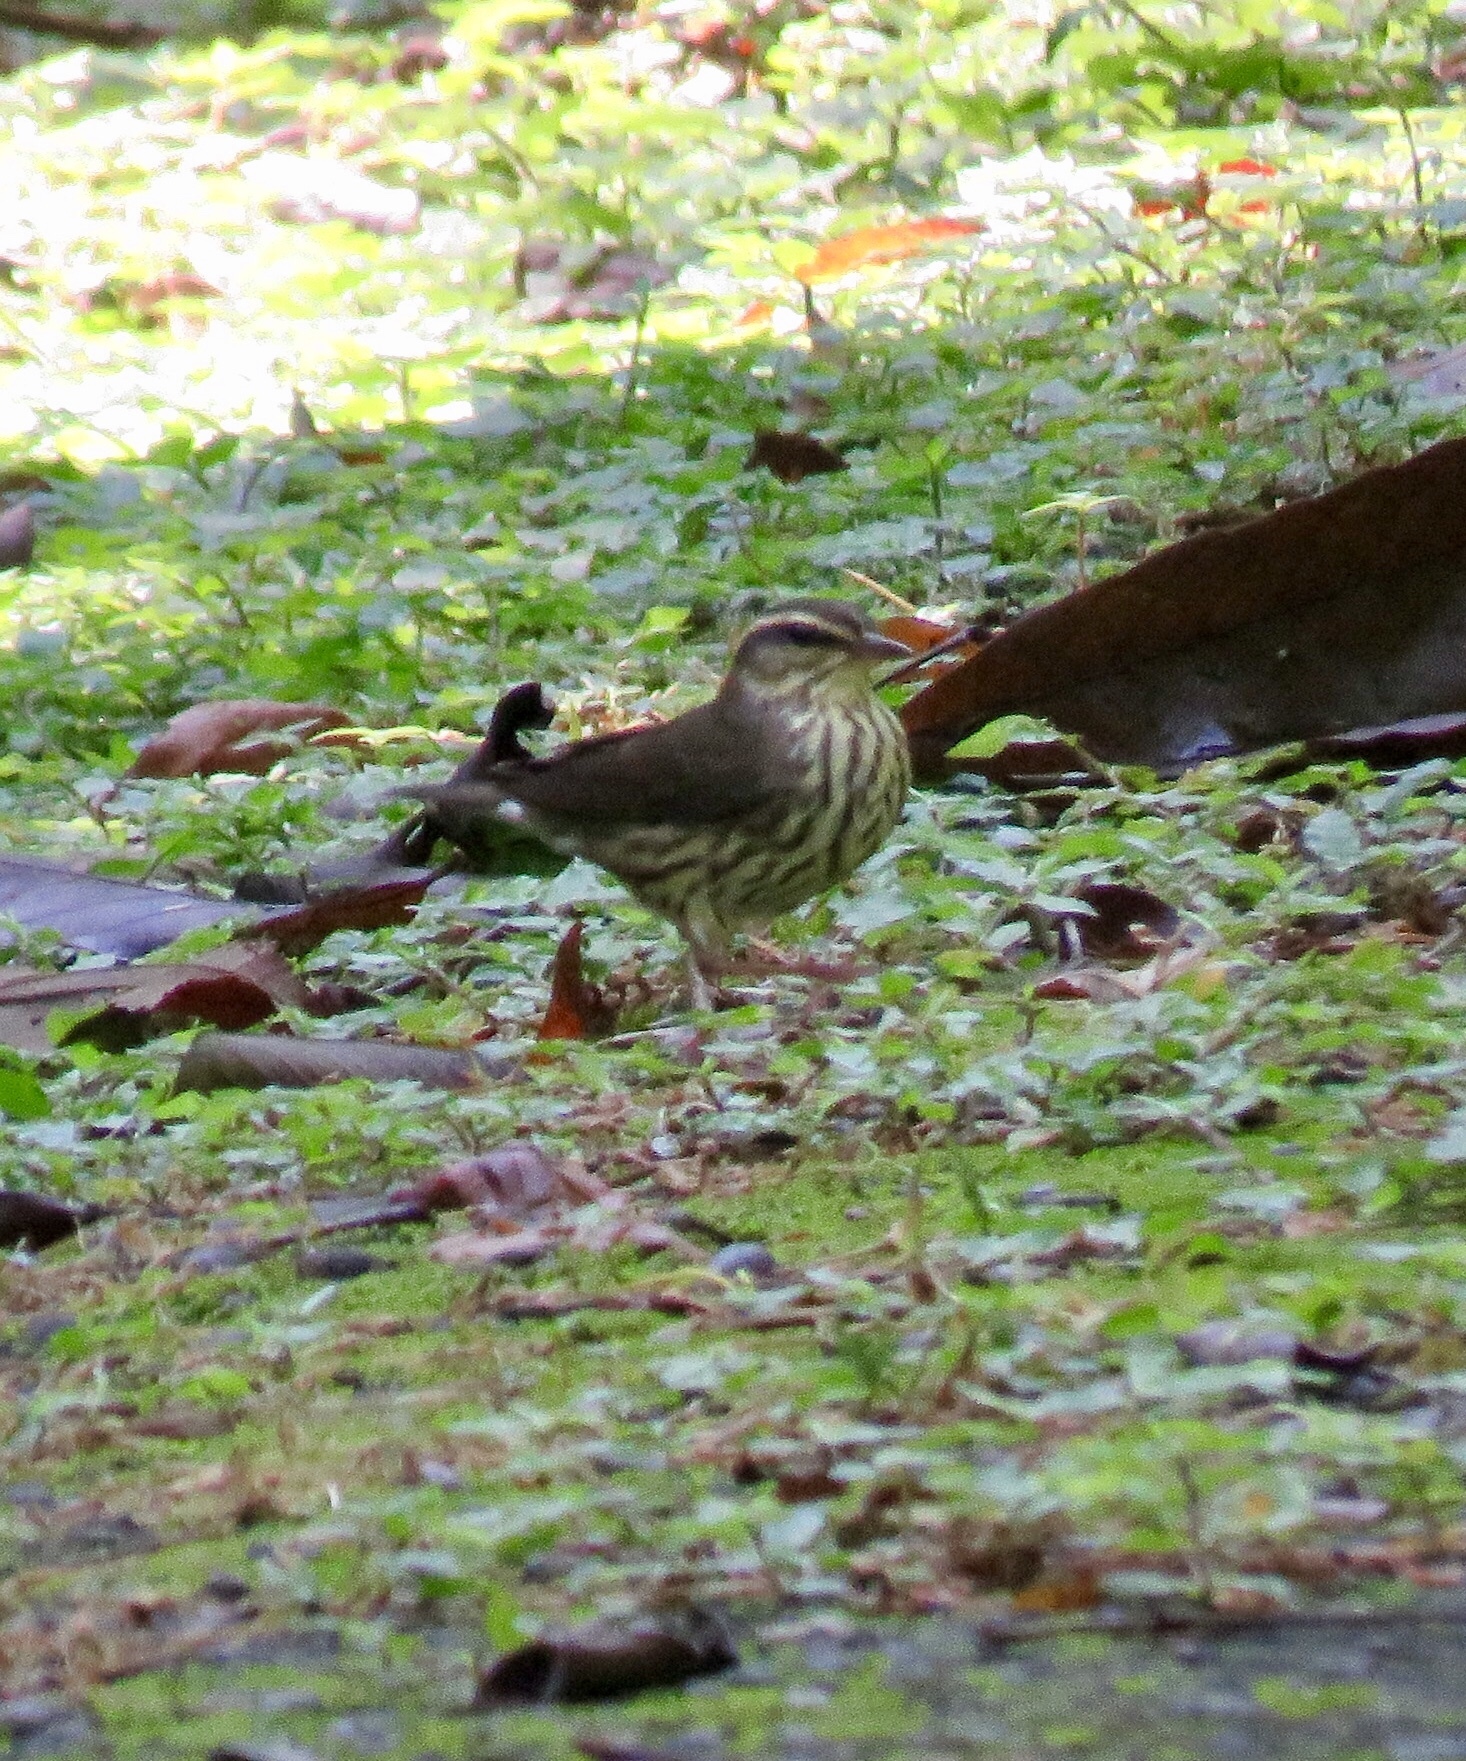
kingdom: Animalia
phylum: Chordata
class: Aves
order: Passeriformes
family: Parulidae
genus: Parkesia
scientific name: Parkesia noveboracensis
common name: Northern waterthrush
